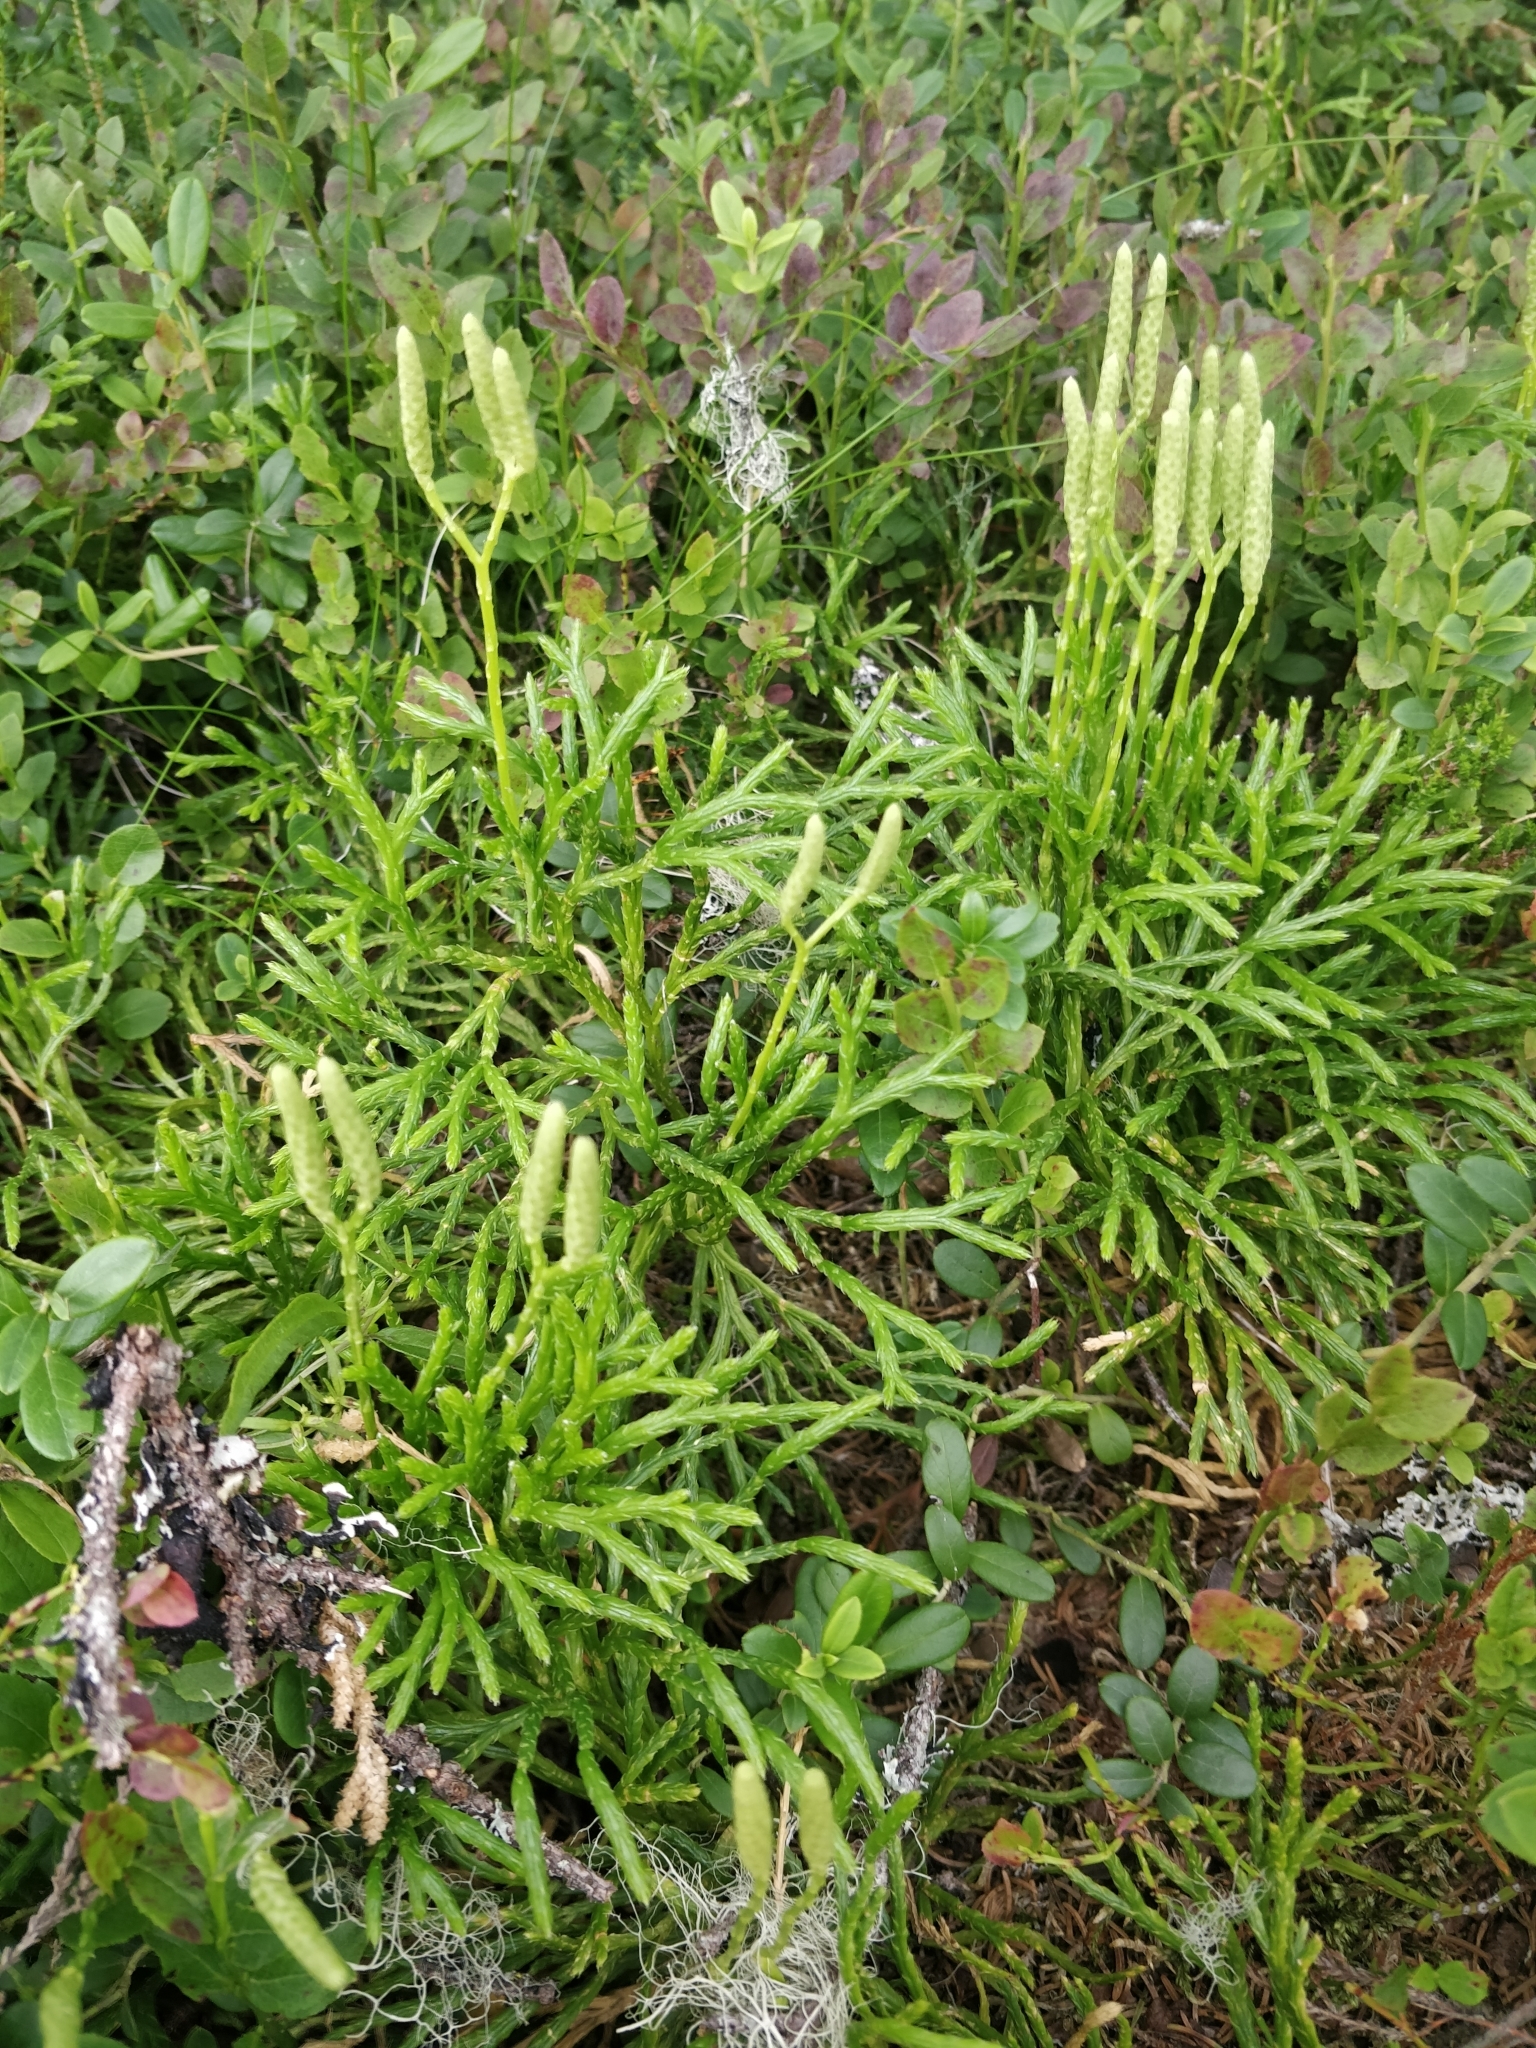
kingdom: Plantae
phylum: Tracheophyta
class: Lycopodiopsida
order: Lycopodiales
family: Lycopodiaceae
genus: Diphasiastrum
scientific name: Diphasiastrum complanatum
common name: Northern running-pine
